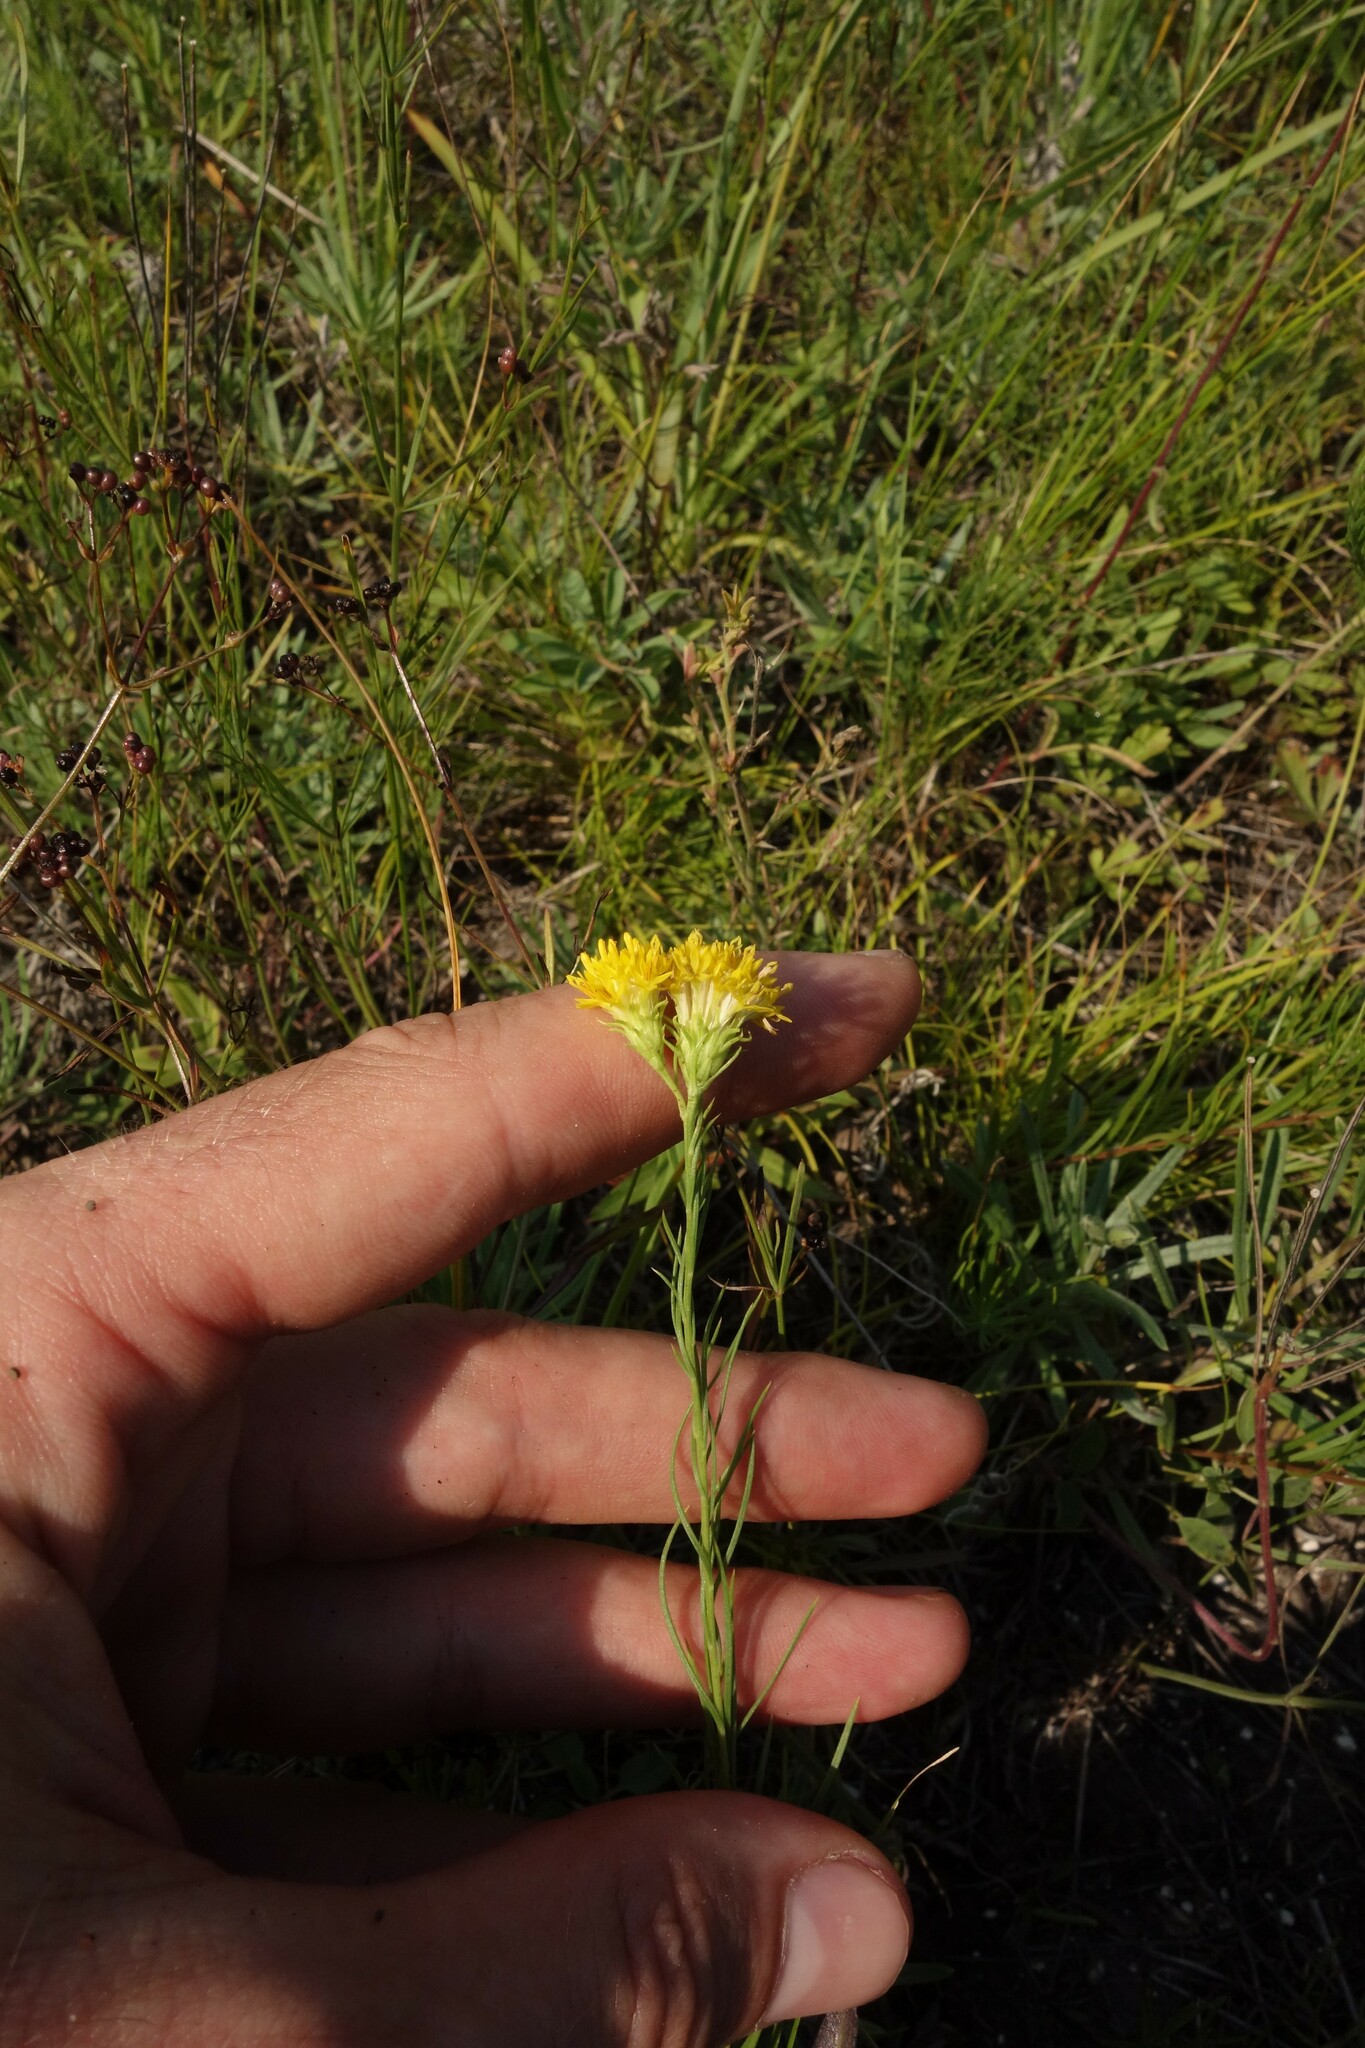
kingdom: Plantae
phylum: Tracheophyta
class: Magnoliopsida
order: Asterales
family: Asteraceae
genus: Galatella
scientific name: Galatella linosyris
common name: Goldilocks aster
